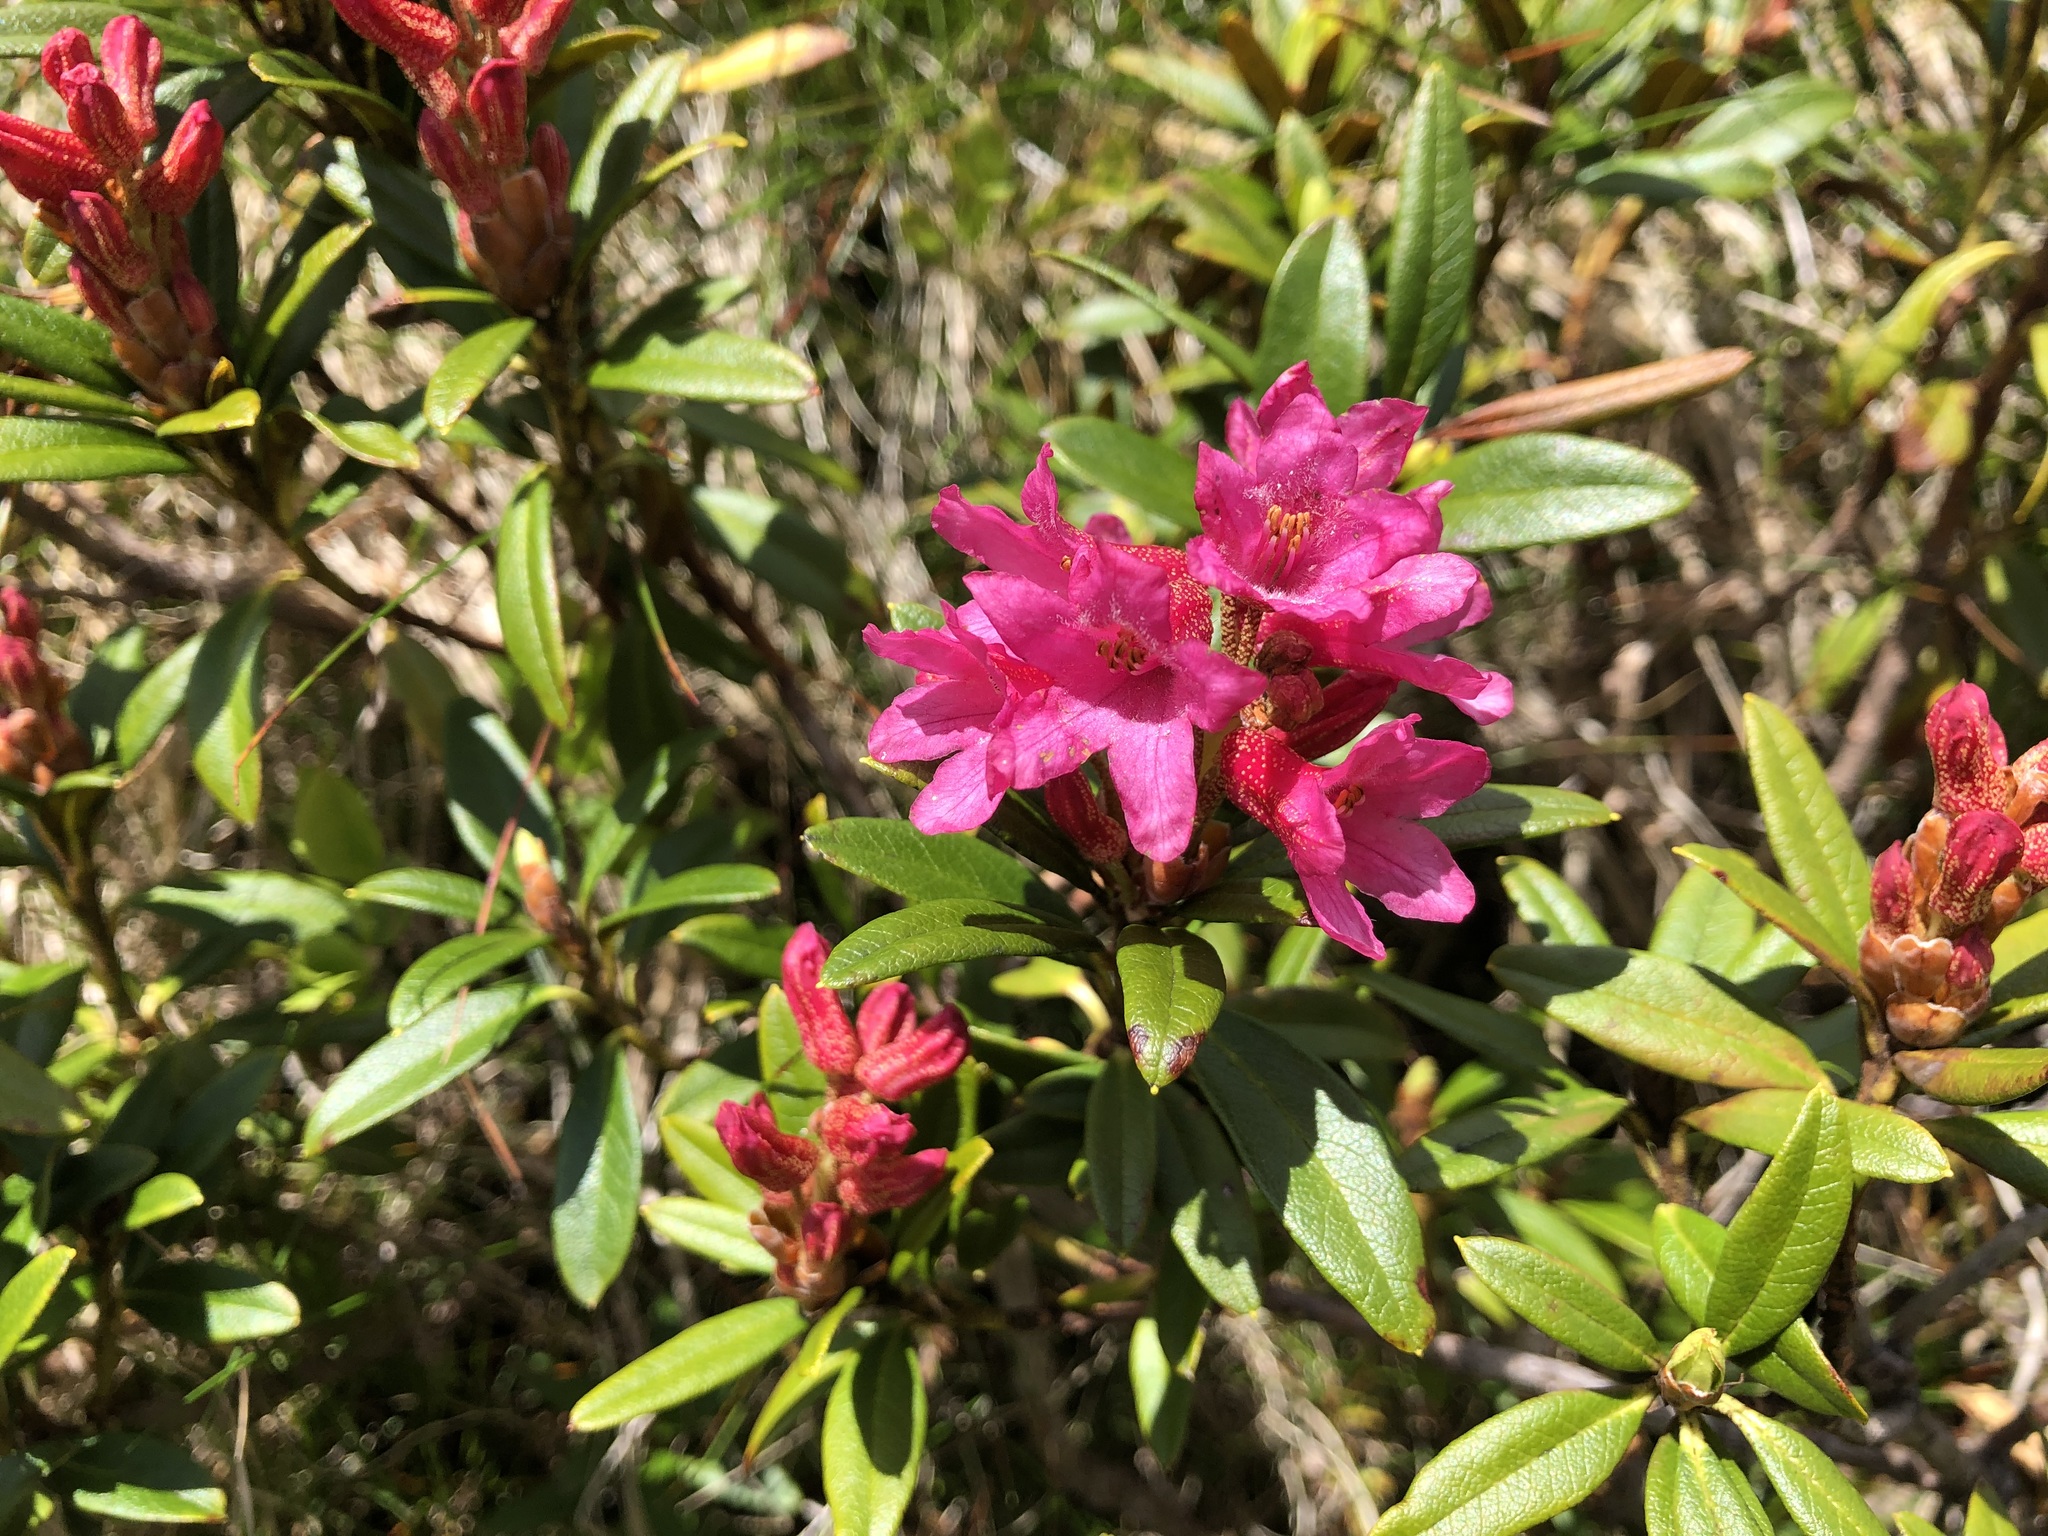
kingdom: Plantae
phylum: Tracheophyta
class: Magnoliopsida
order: Ericales
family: Ericaceae
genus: Rhododendron
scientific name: Rhododendron ferrugineum
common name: Alpenrose
